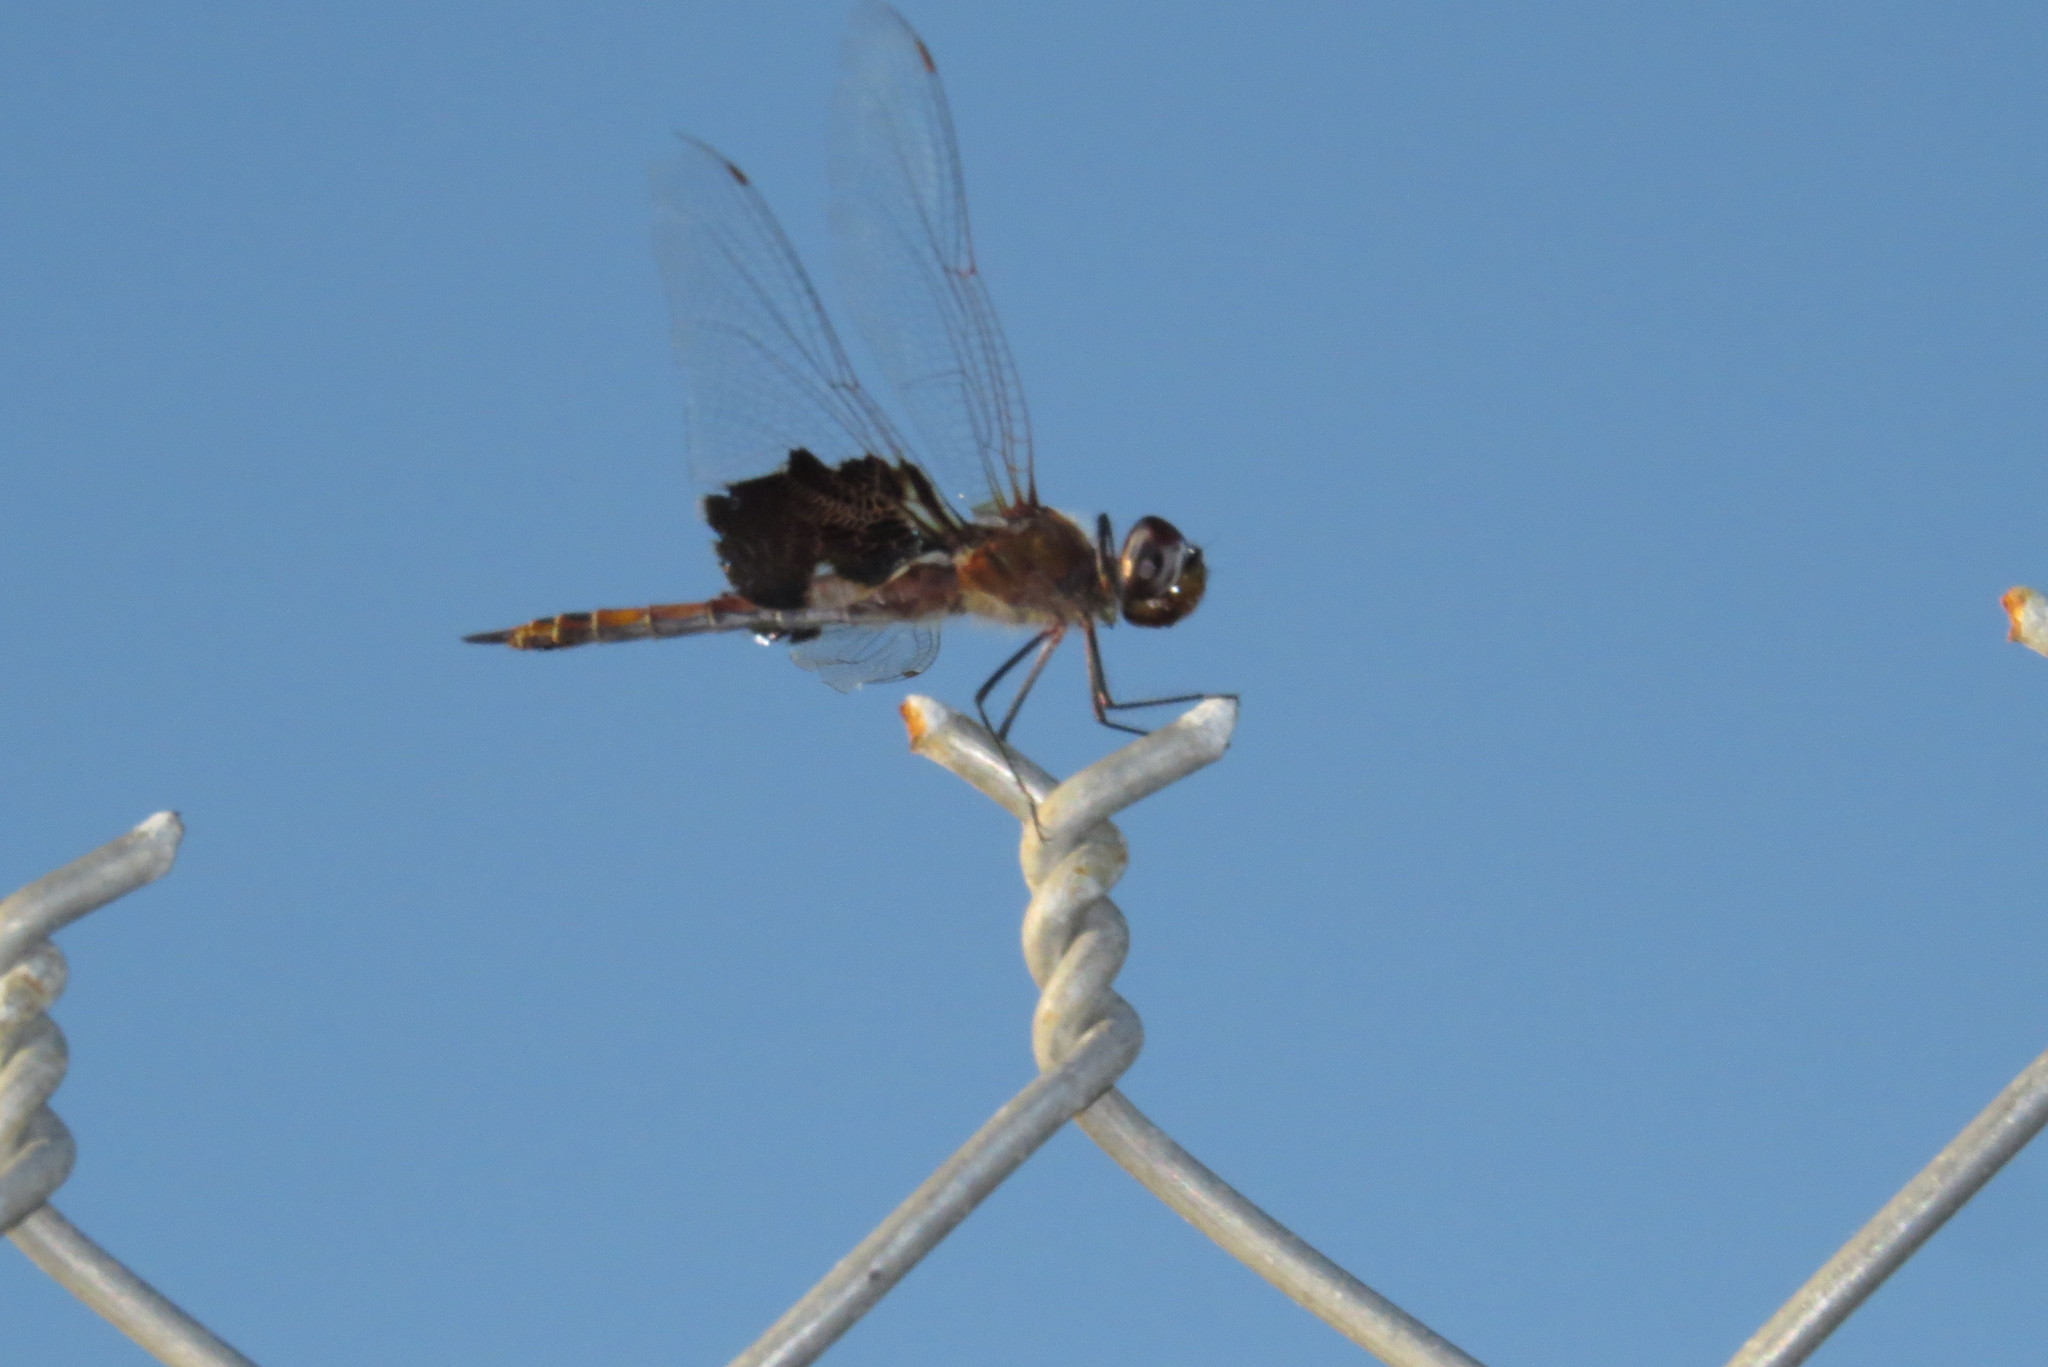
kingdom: Animalia
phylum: Arthropoda
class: Insecta
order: Odonata
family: Libellulidae
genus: Tramea
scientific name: Tramea carolina
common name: Carolina saddlebags
